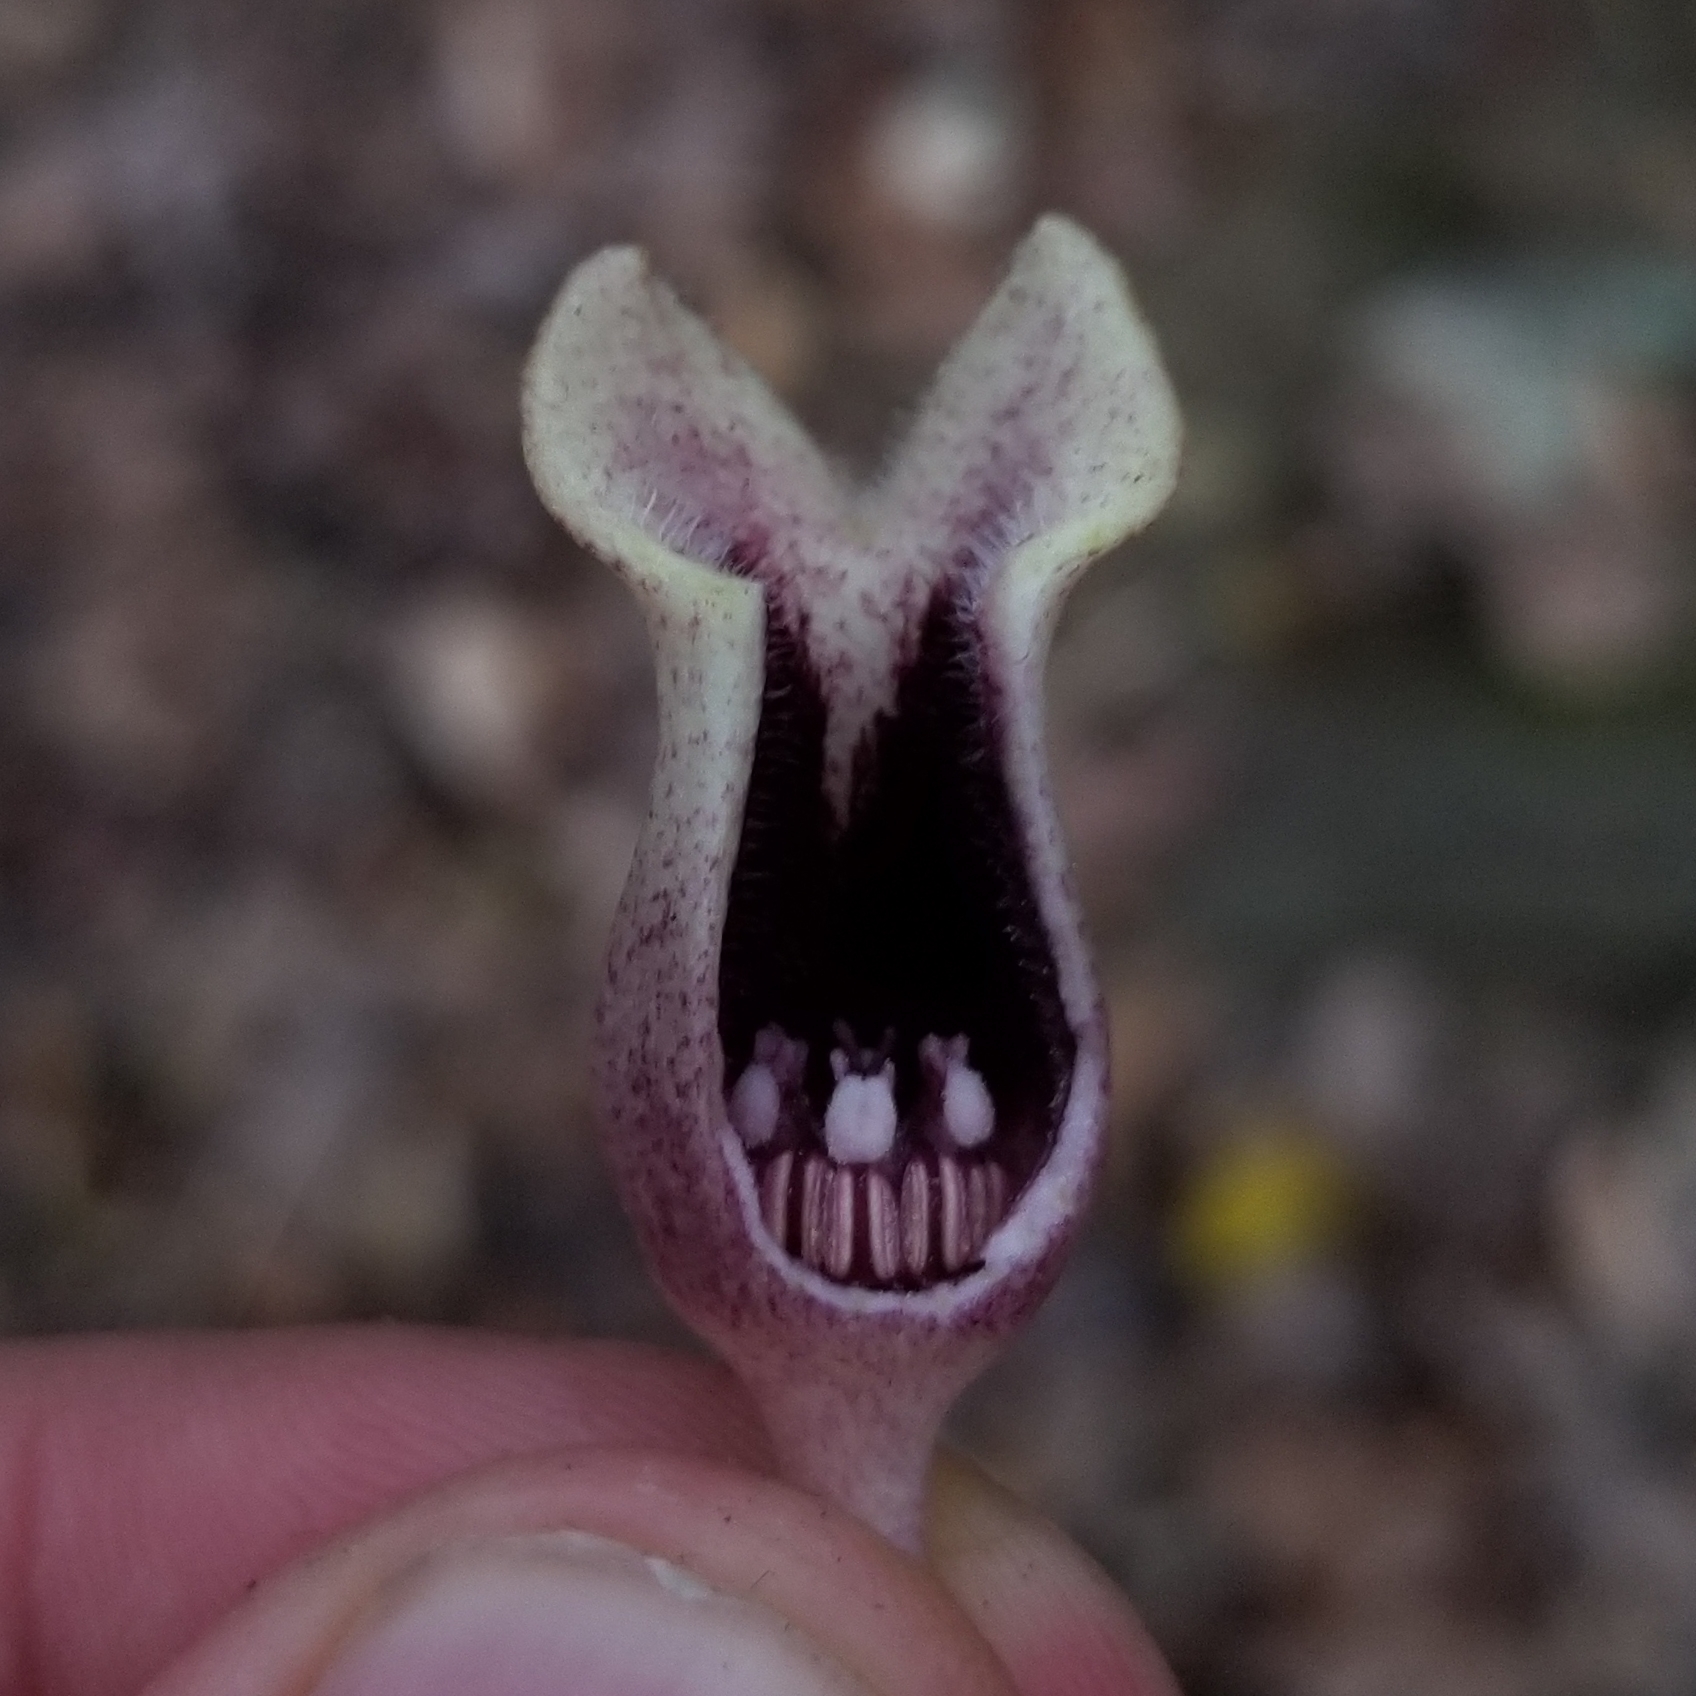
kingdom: Plantae
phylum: Tracheophyta
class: Magnoliopsida
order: Piperales
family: Aristolochiaceae
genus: Hexastylis
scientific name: Hexastylis arifolia
